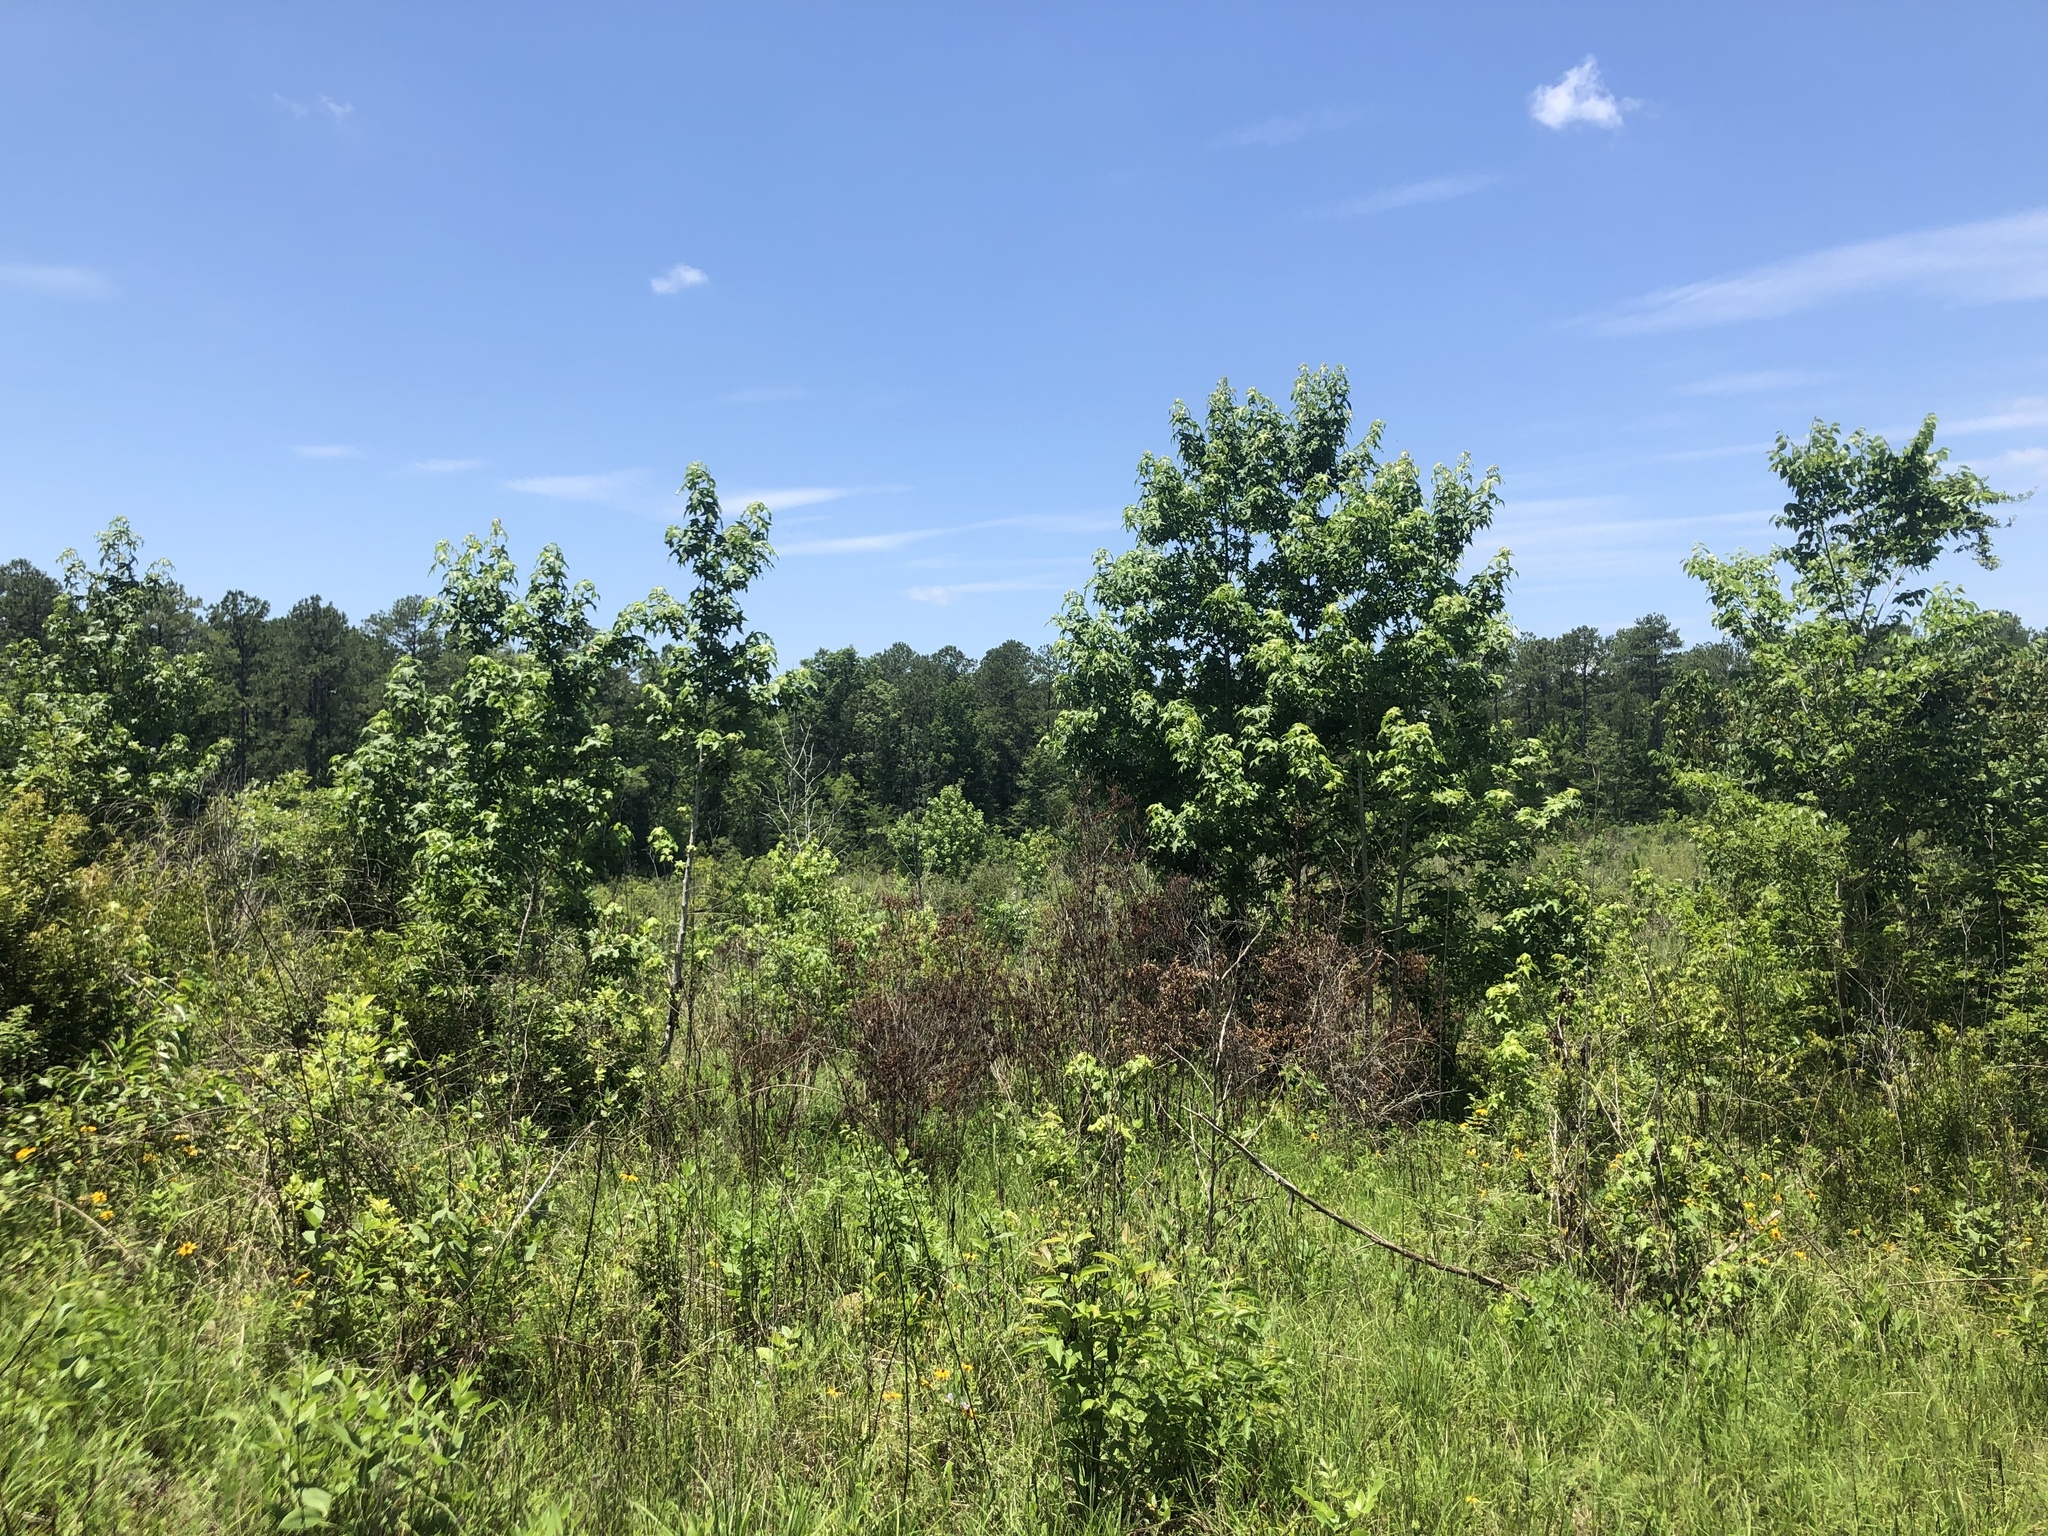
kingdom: Plantae
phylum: Tracheophyta
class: Magnoliopsida
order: Saxifragales
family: Altingiaceae
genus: Liquidambar
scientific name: Liquidambar styraciflua
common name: Sweet gum
